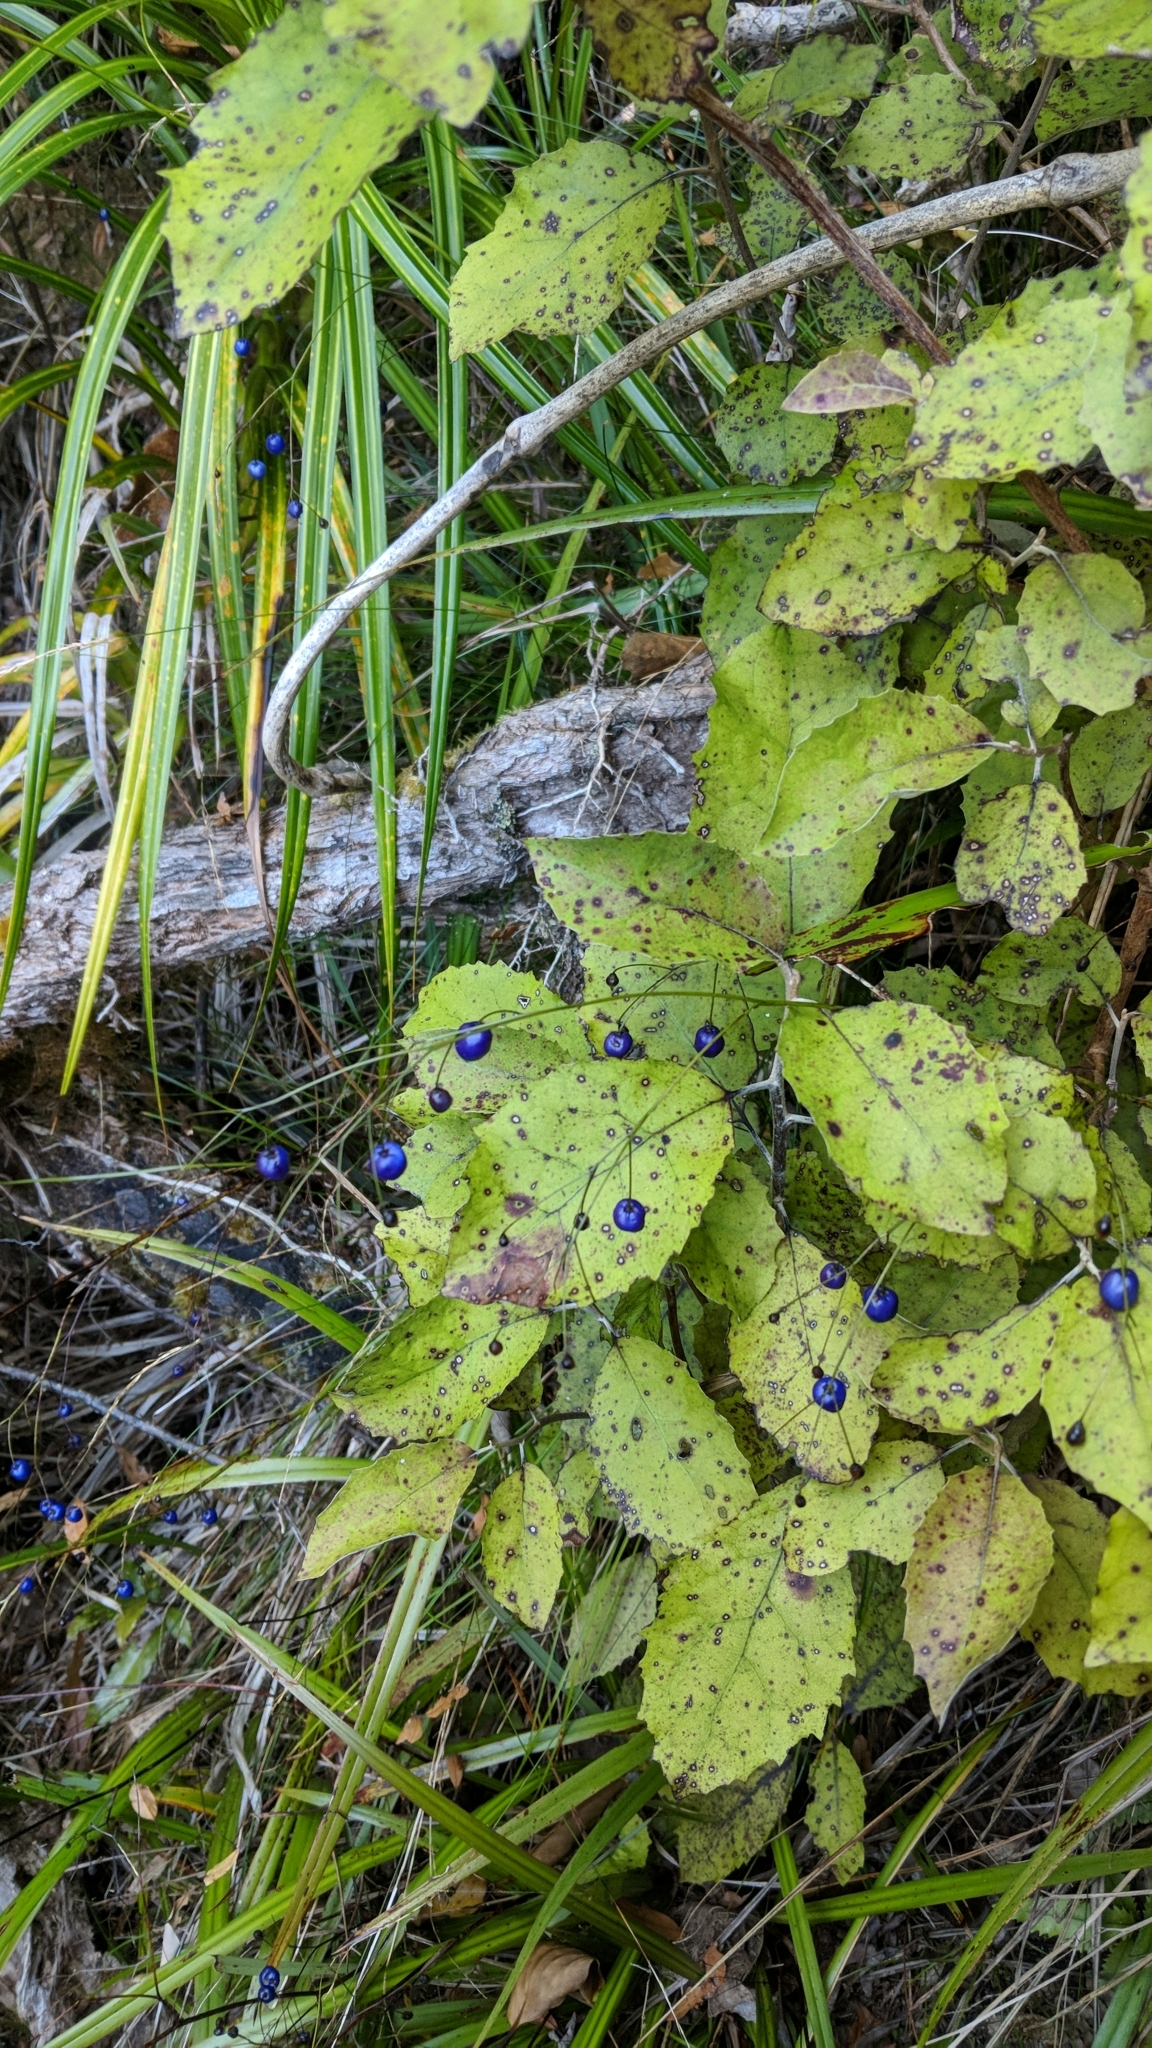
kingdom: Plantae
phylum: Tracheophyta
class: Liliopsida
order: Asparagales
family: Asphodelaceae
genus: Dianella
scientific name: Dianella nigra
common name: New zealand-blueberry
